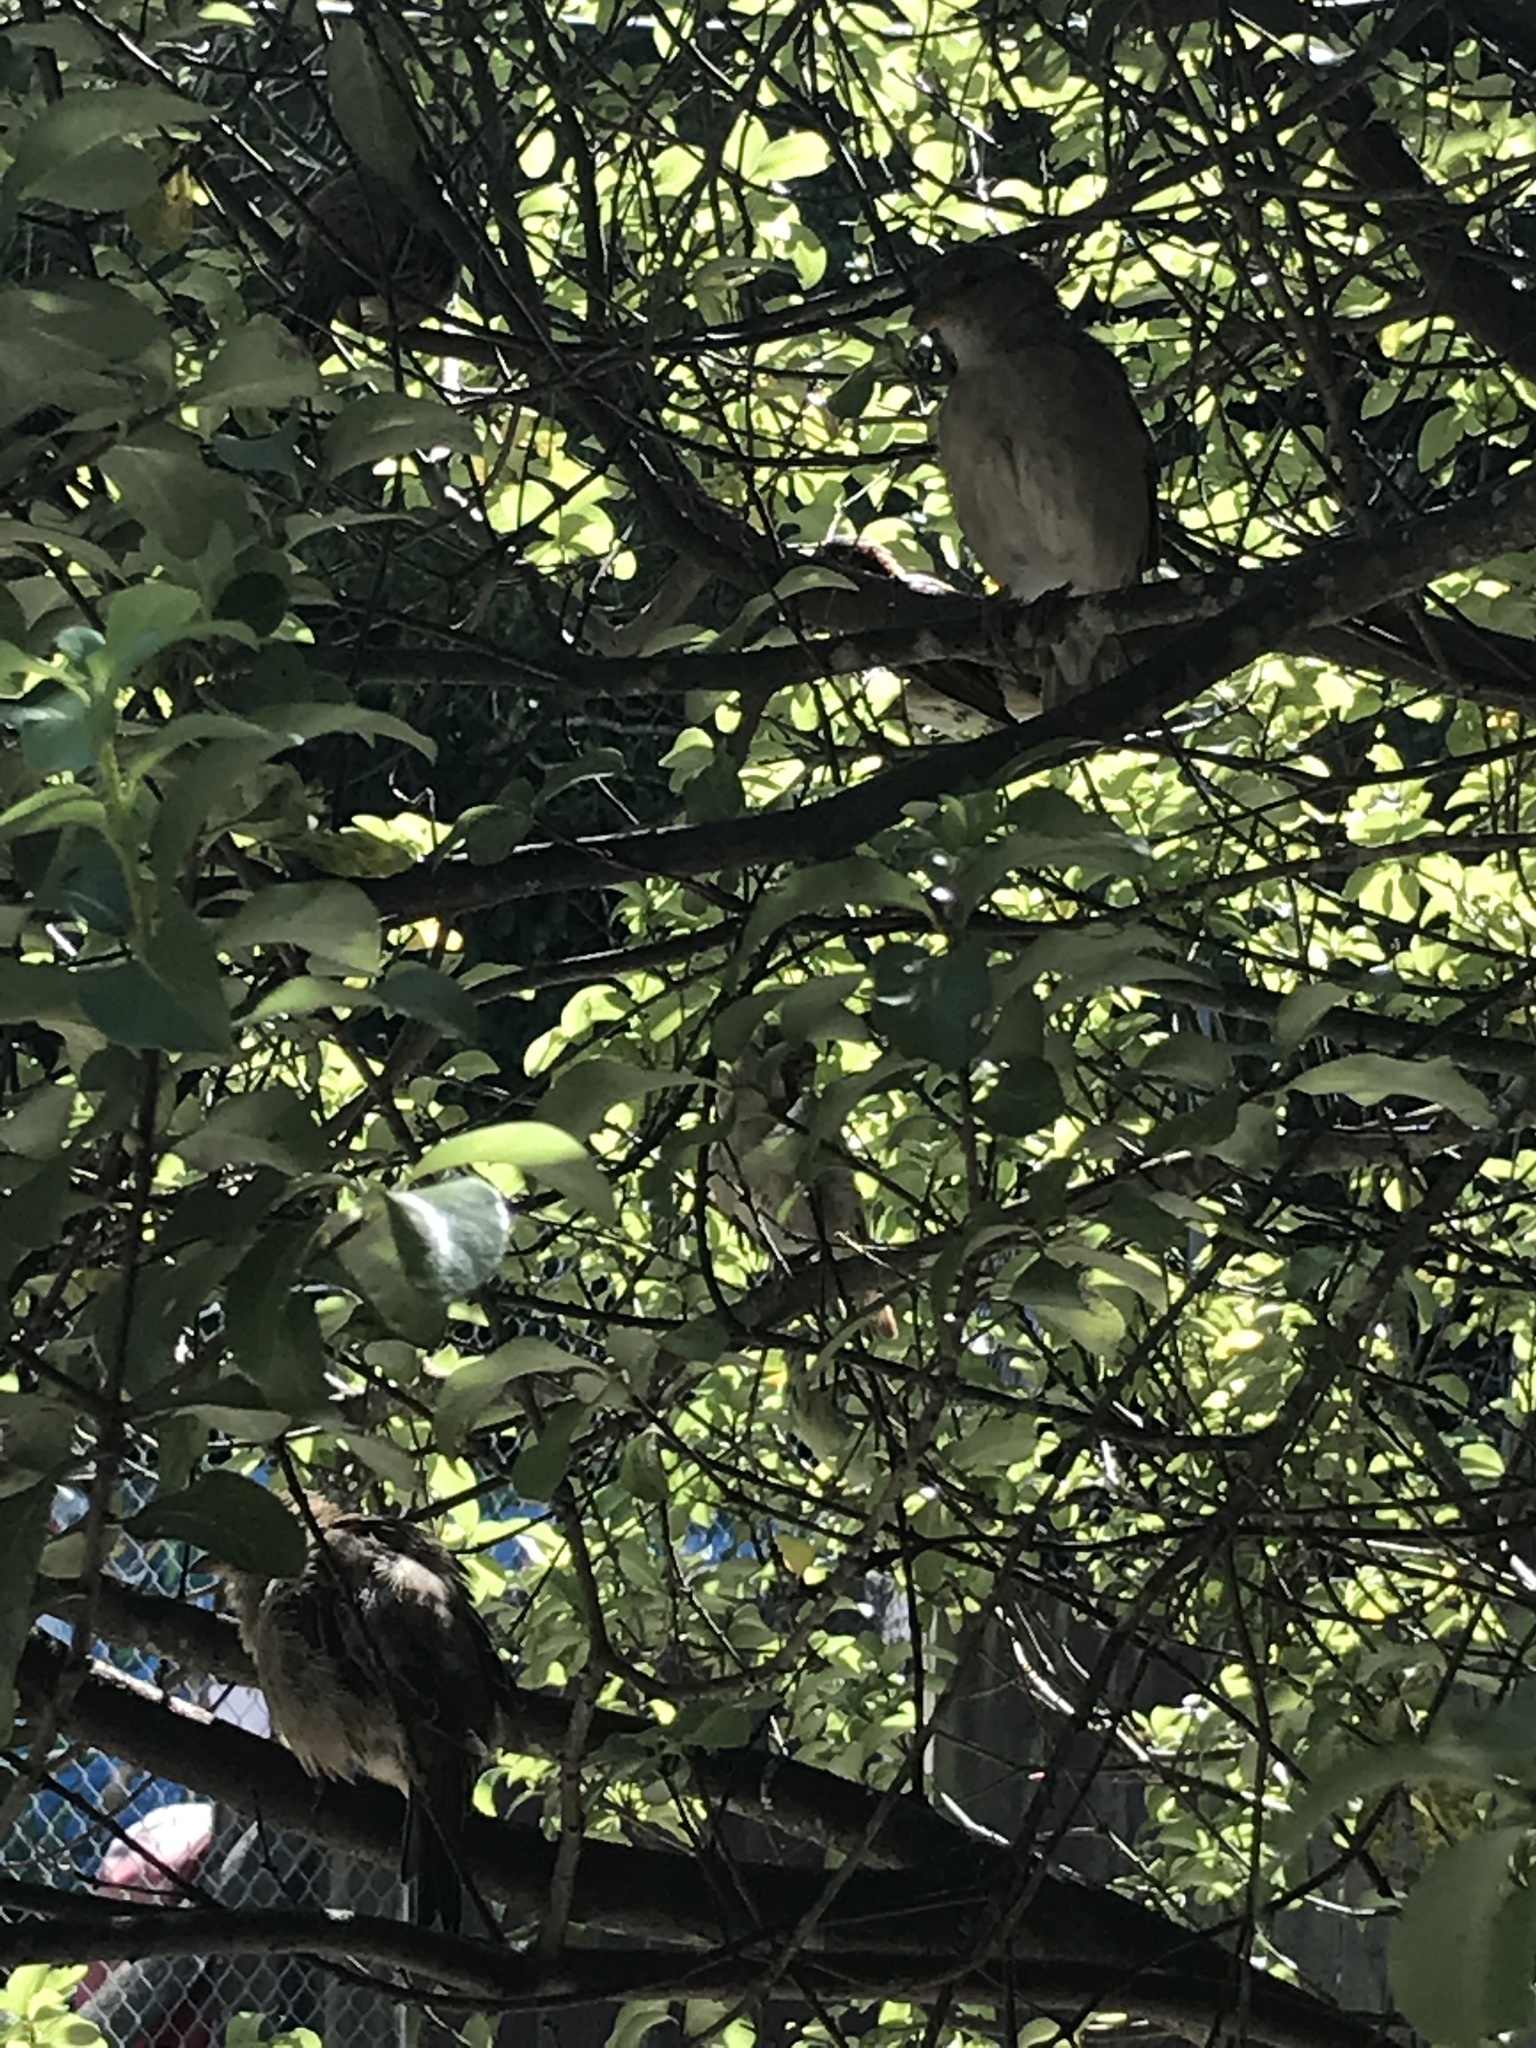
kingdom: Animalia
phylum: Chordata
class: Aves
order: Passeriformes
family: Passeridae
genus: Passer
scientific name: Passer domesticus
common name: House sparrow
